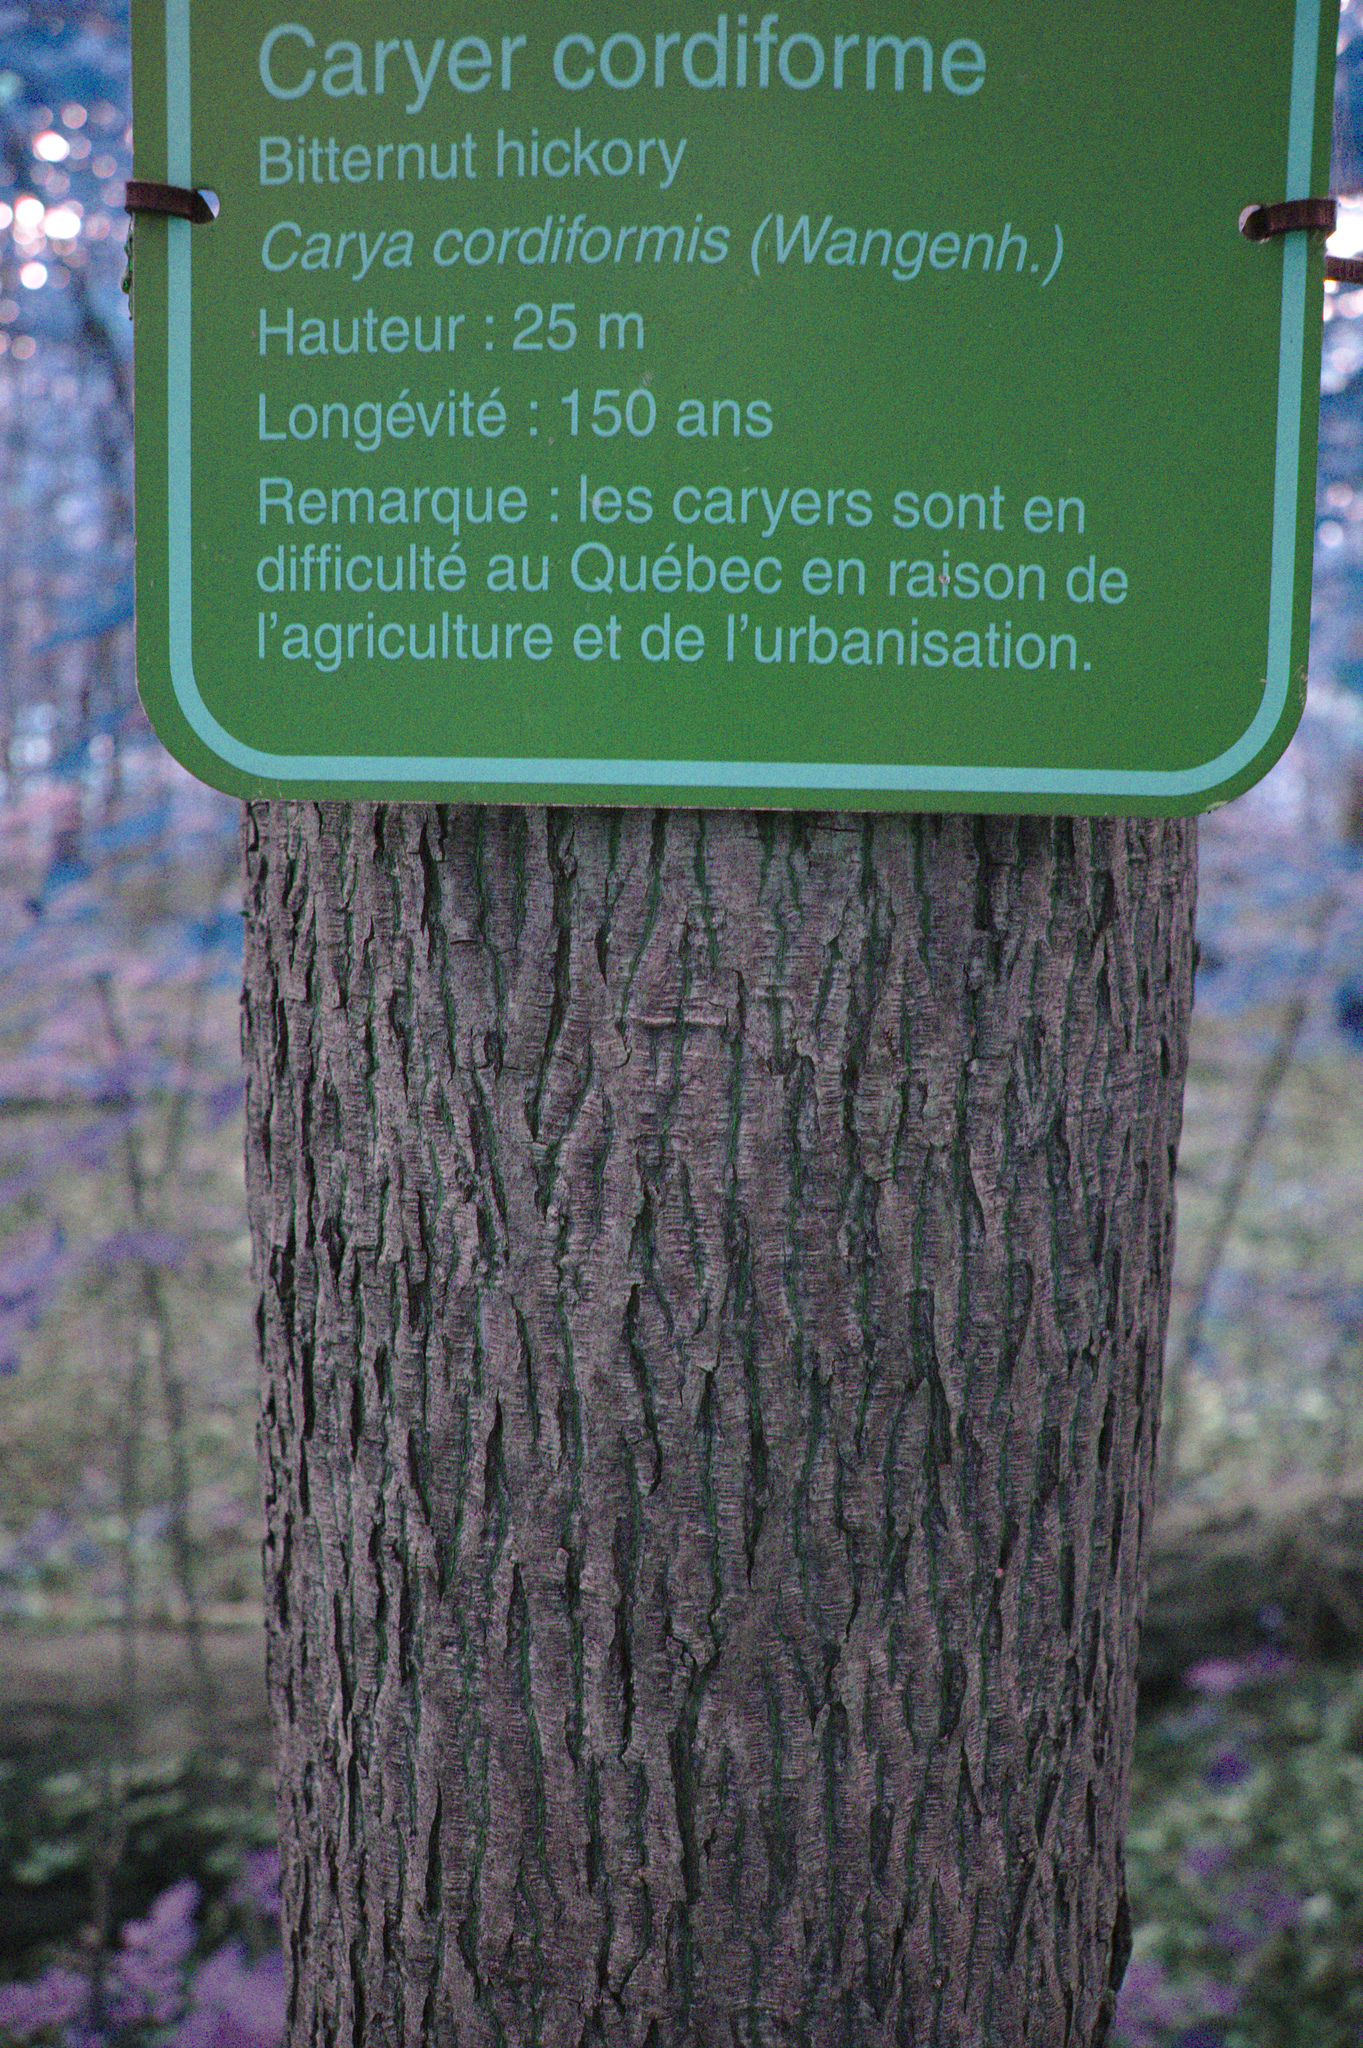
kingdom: Plantae
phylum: Tracheophyta
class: Magnoliopsida
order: Fagales
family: Juglandaceae
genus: Carya
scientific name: Carya cordiformis
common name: Bitternut hickory
